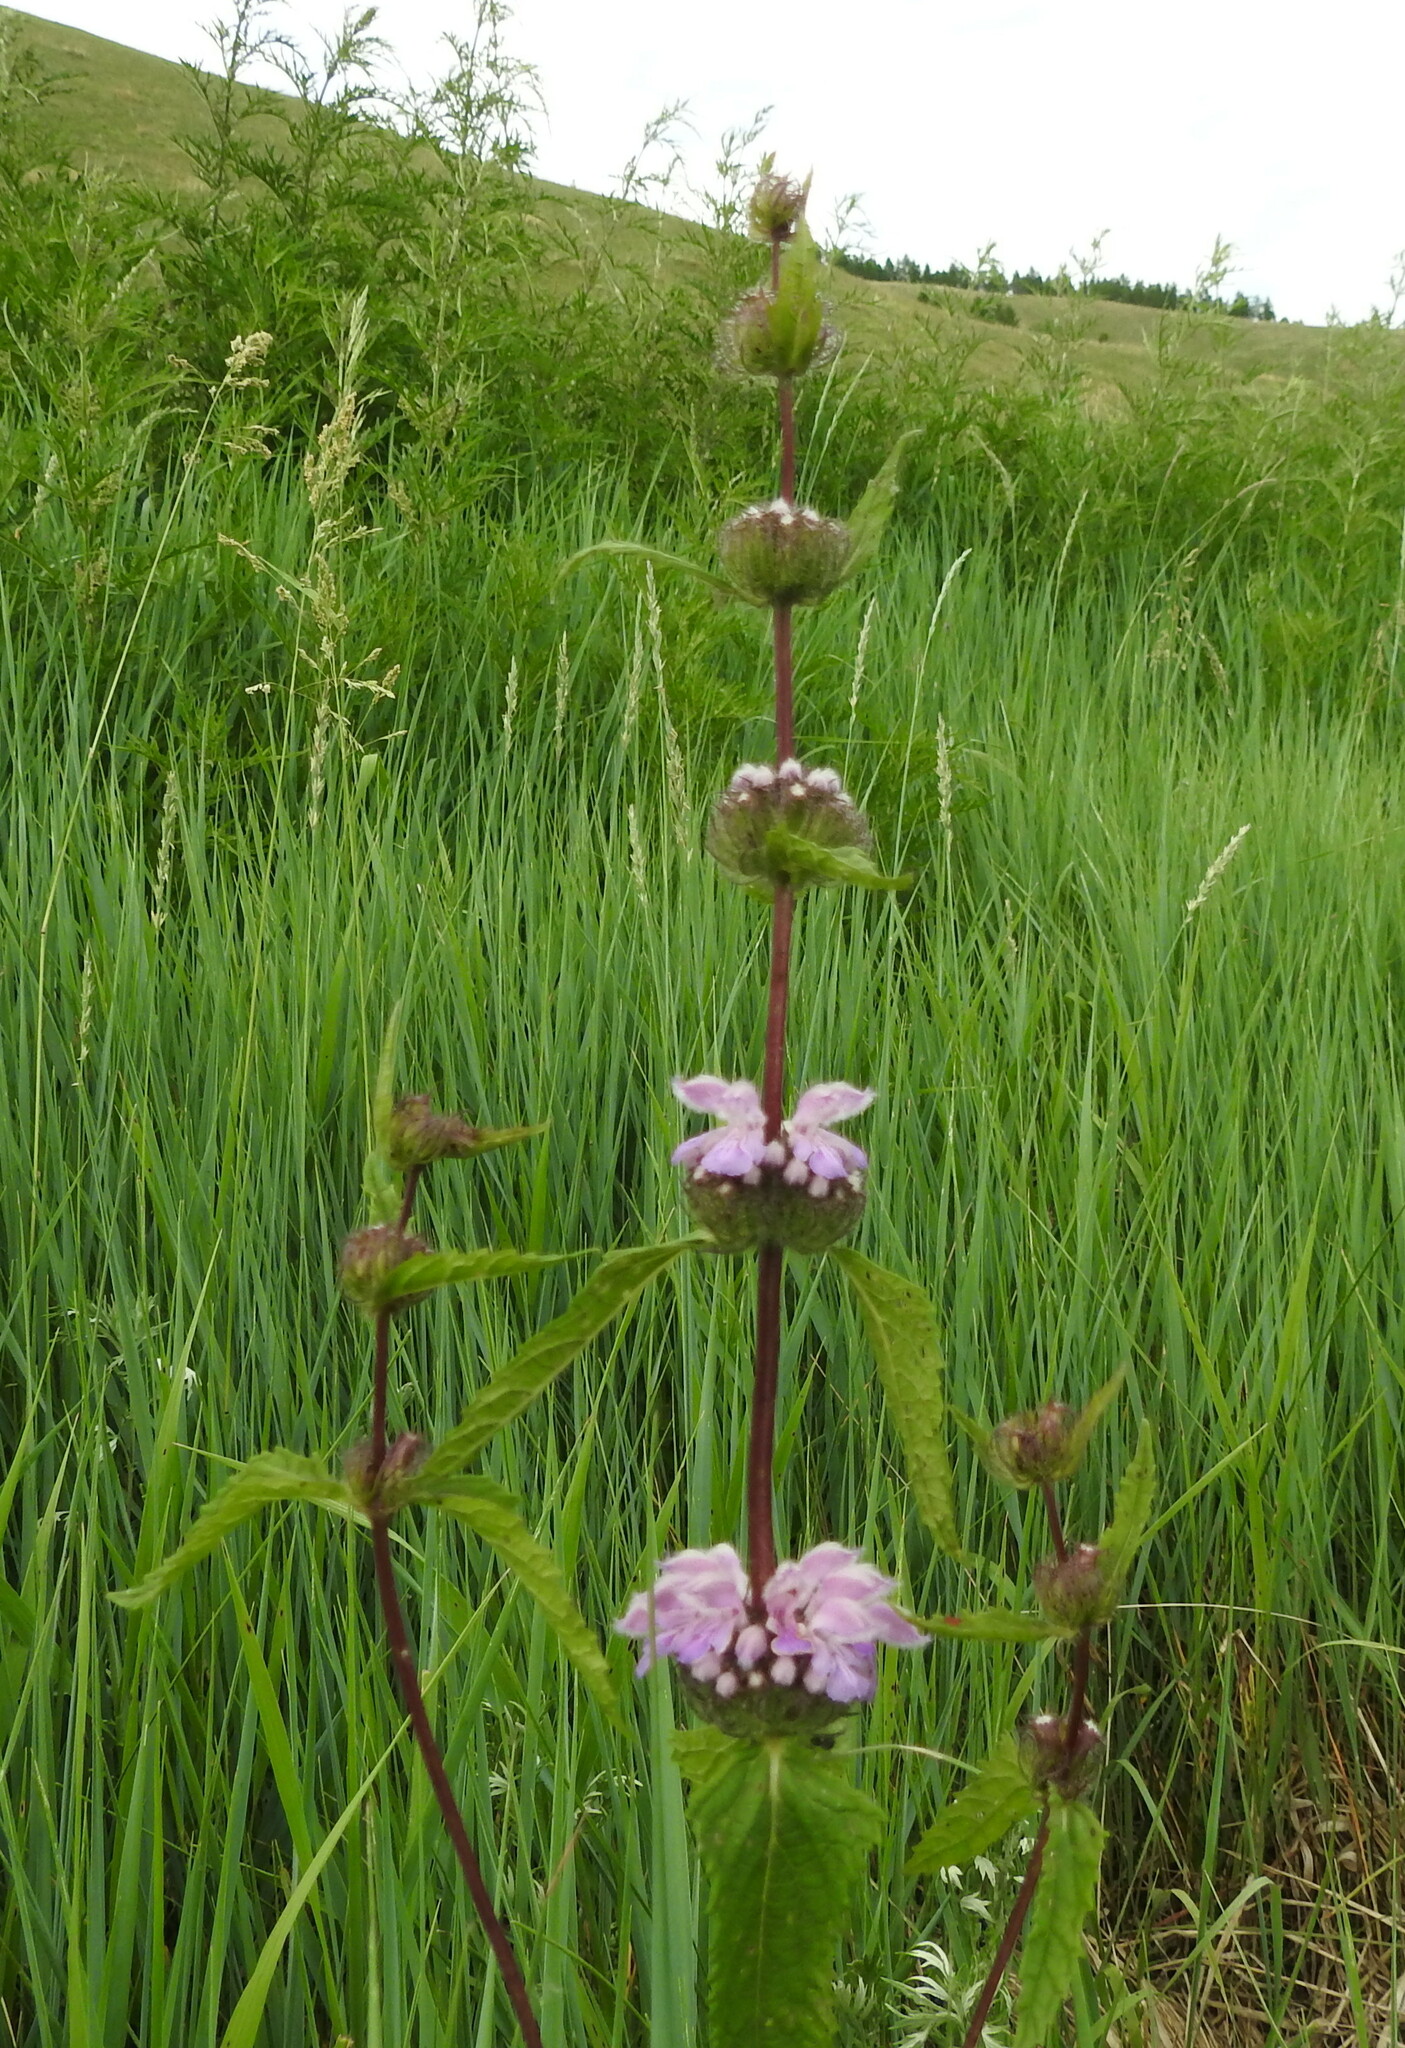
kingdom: Plantae
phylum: Tracheophyta
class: Magnoliopsida
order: Lamiales
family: Lamiaceae
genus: Phlomoides
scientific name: Phlomoides tuberosa
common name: Tuberous jerusalem sage
